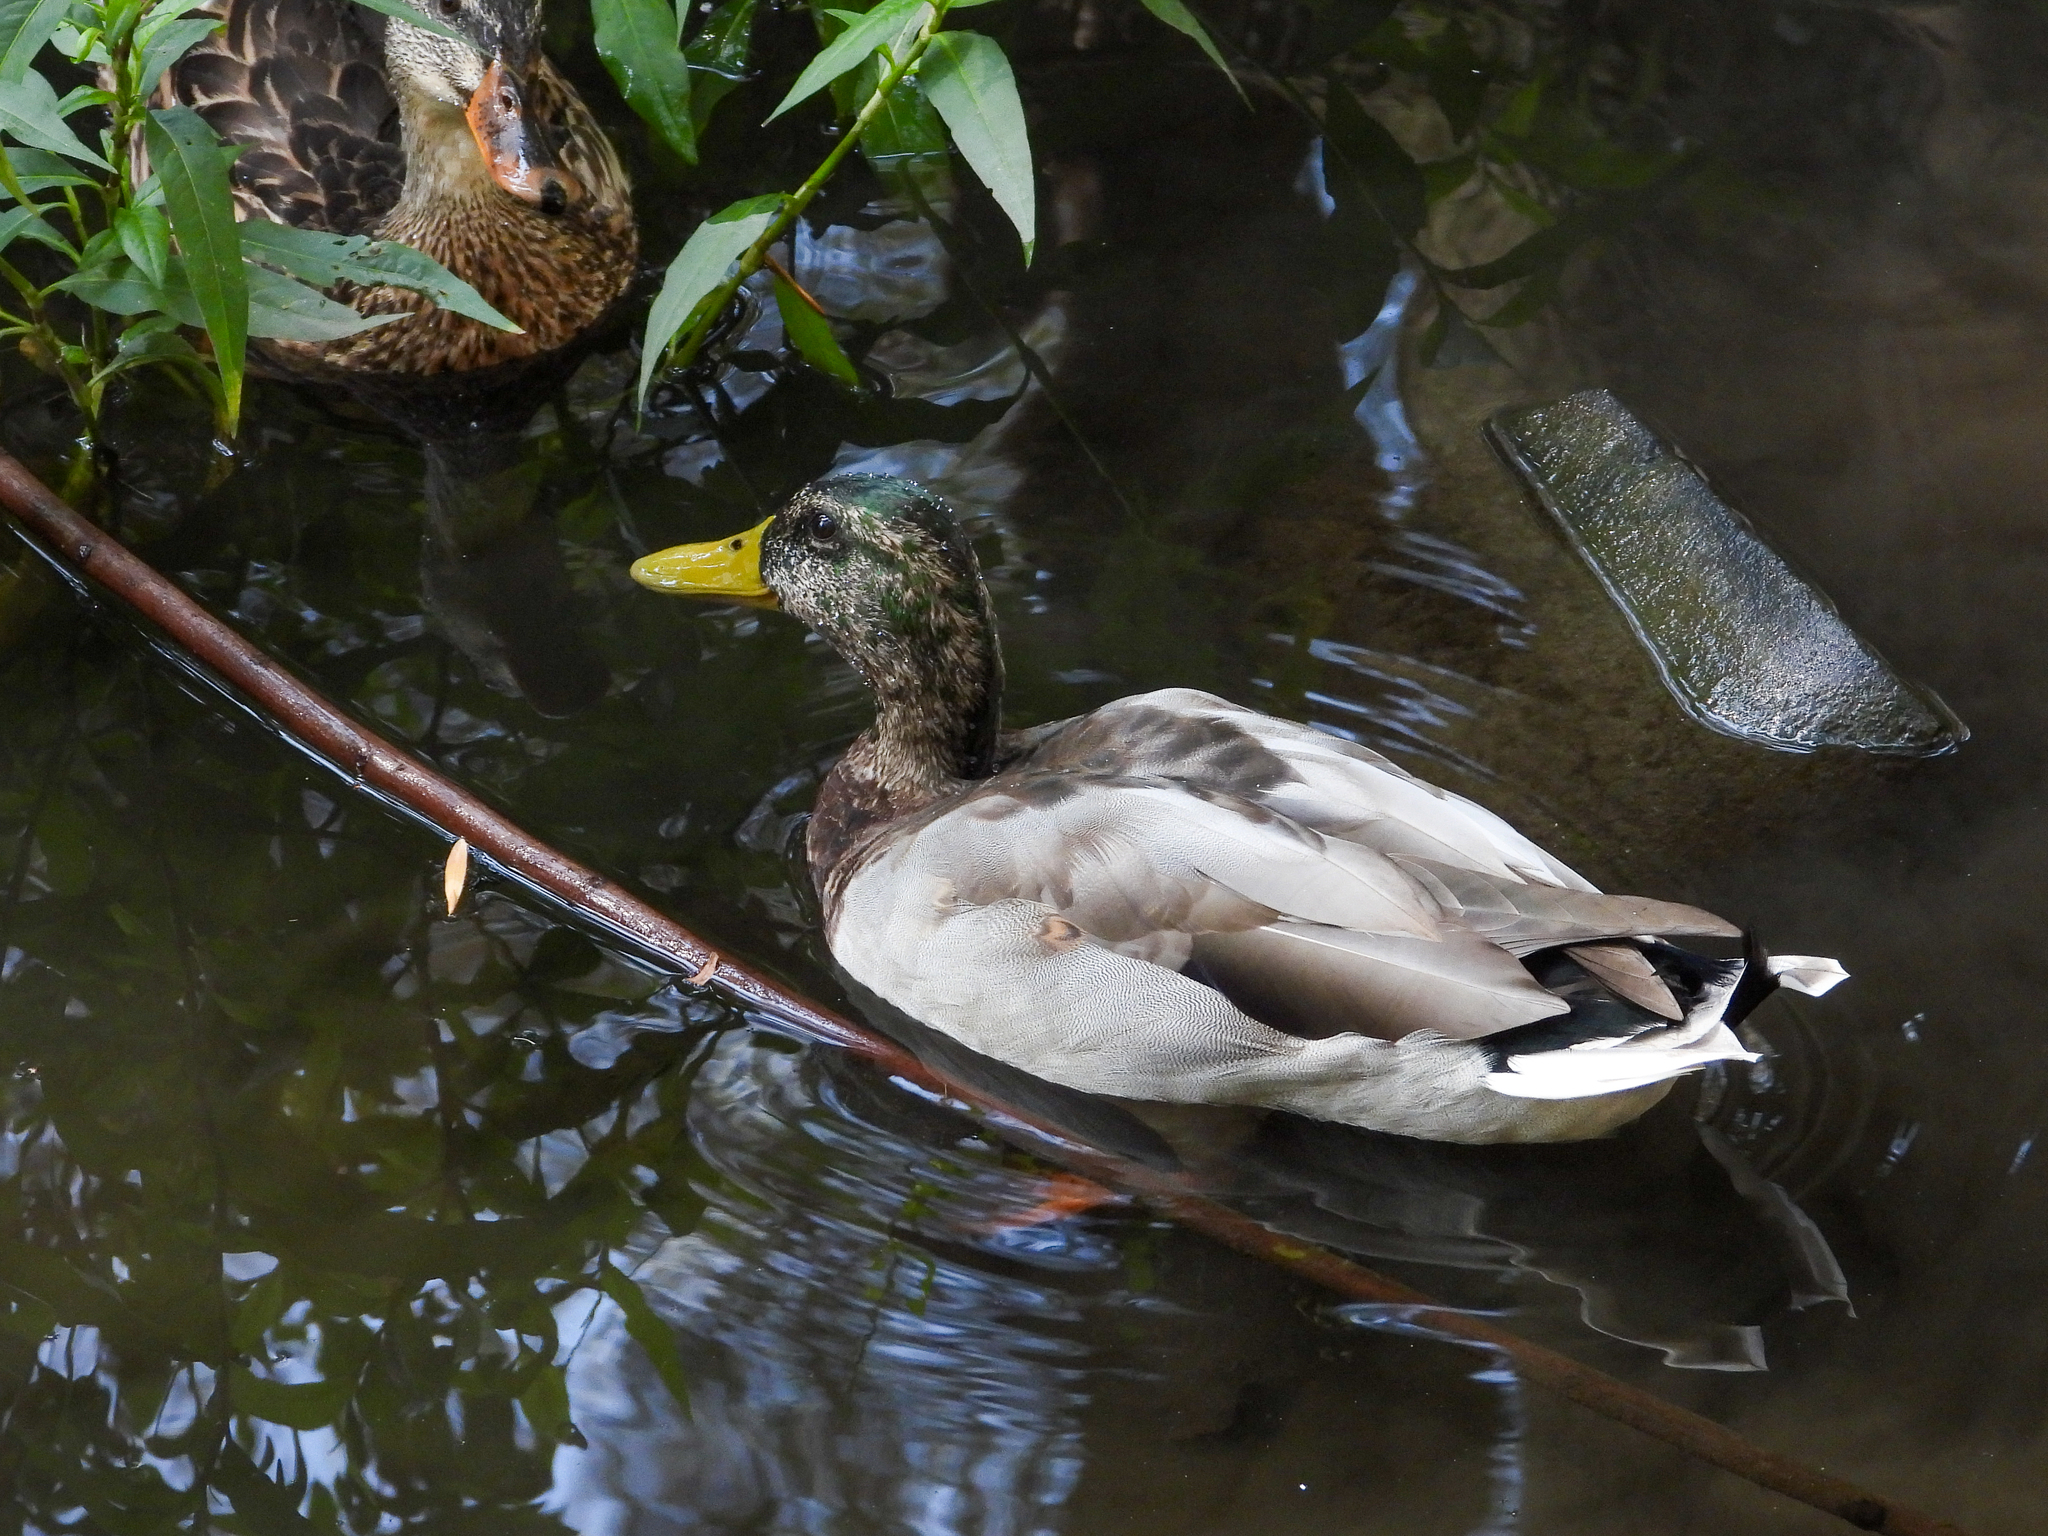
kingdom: Animalia
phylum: Chordata
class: Aves
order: Anseriformes
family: Anatidae
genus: Anas
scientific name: Anas platyrhynchos
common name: Mallard
